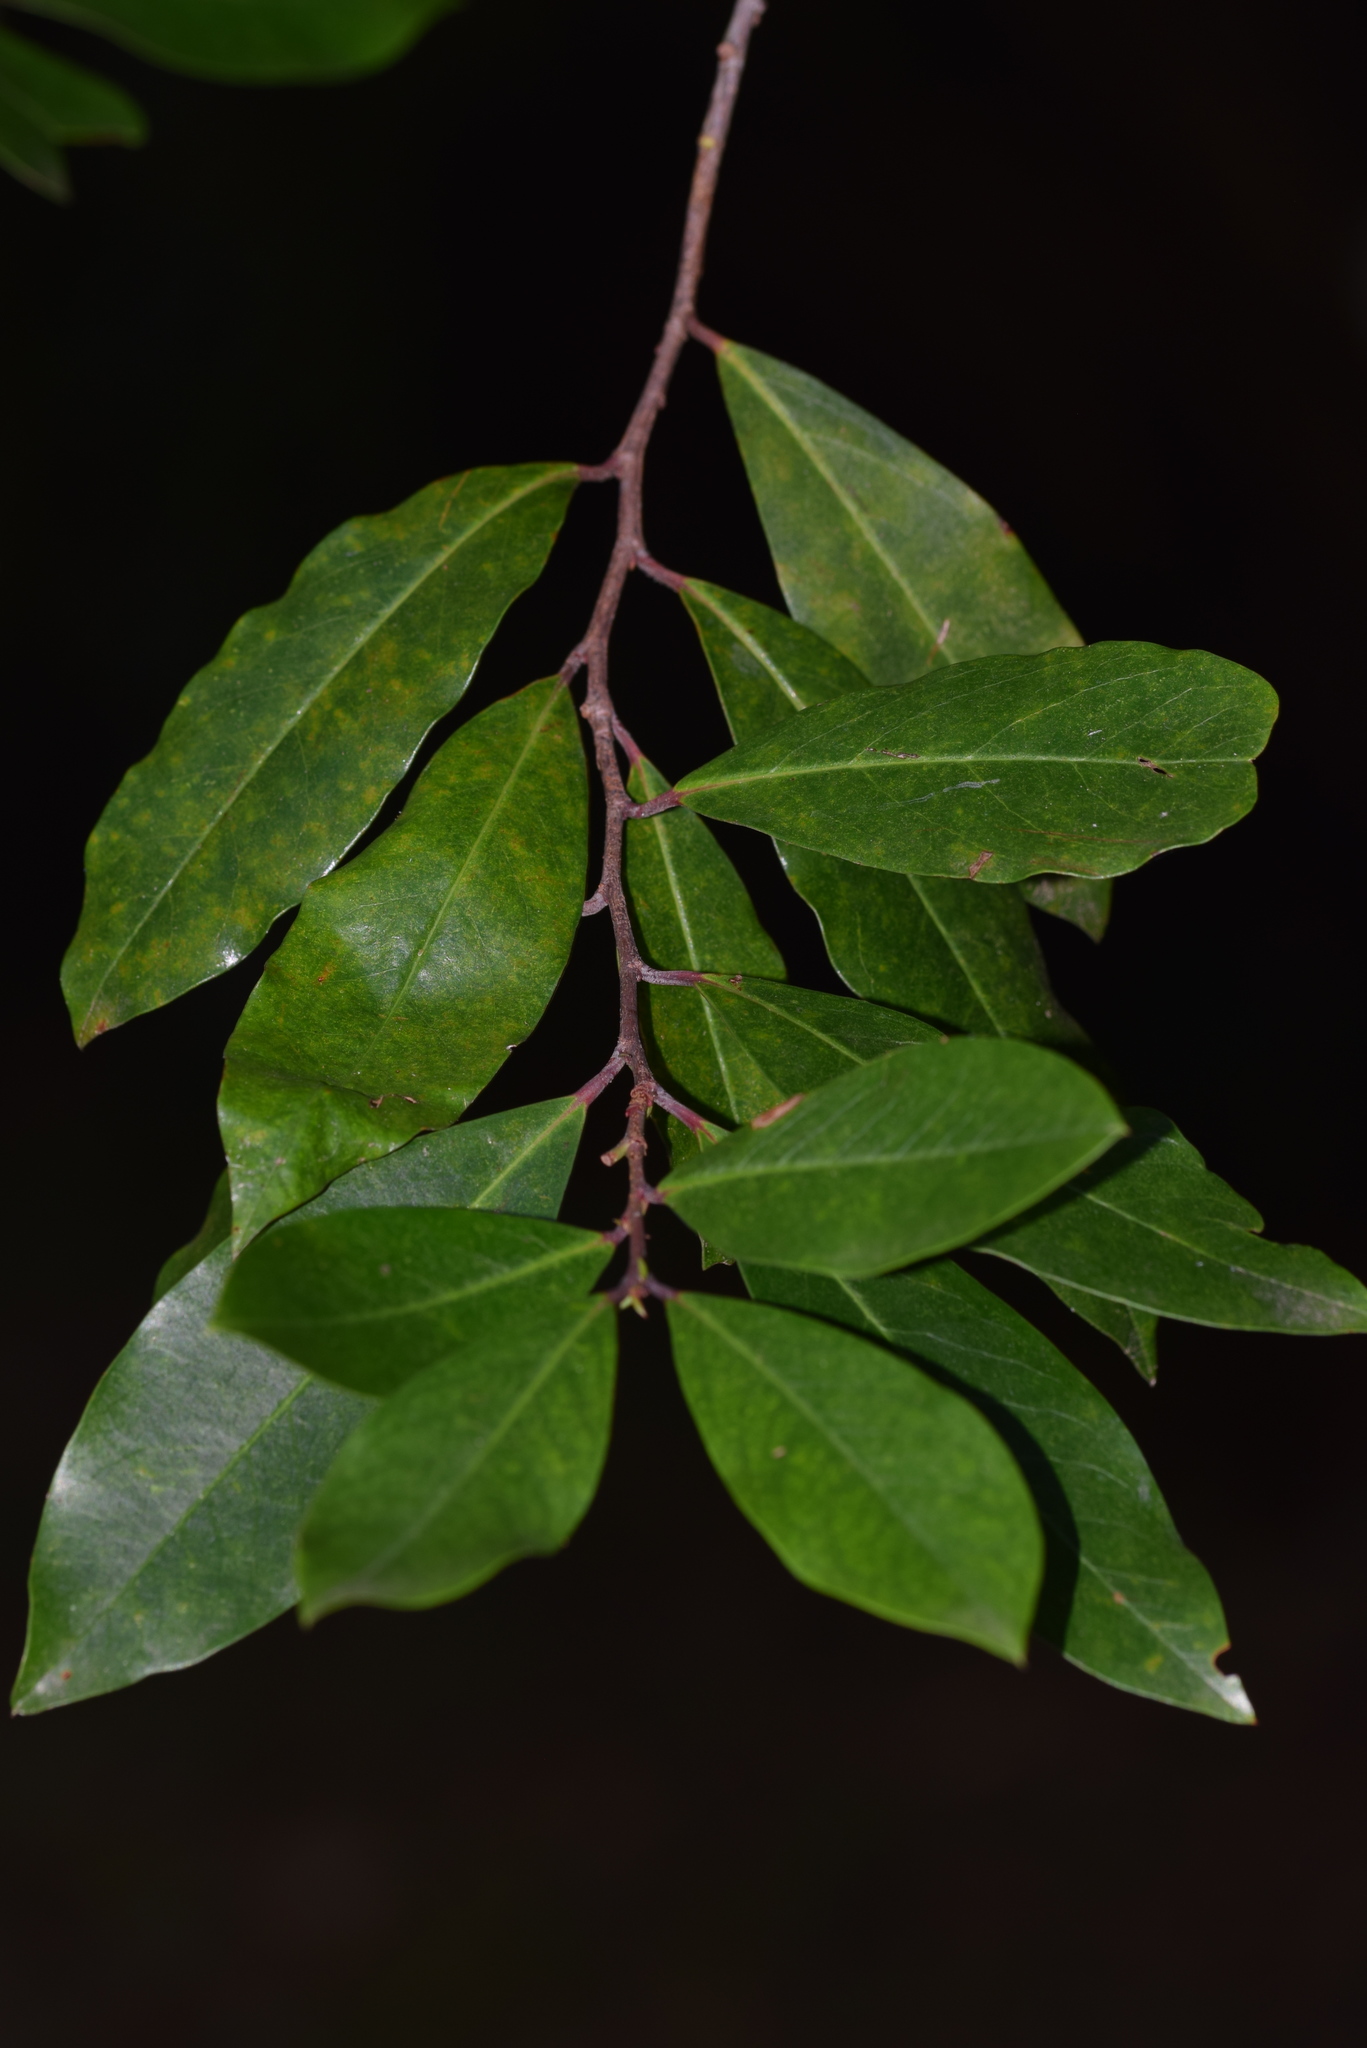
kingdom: Plantae
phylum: Tracheophyta
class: Magnoliopsida
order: Rosales
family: Rosaceae
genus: Prunus
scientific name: Prunus caroliniana
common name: Carolina laurel cherry
